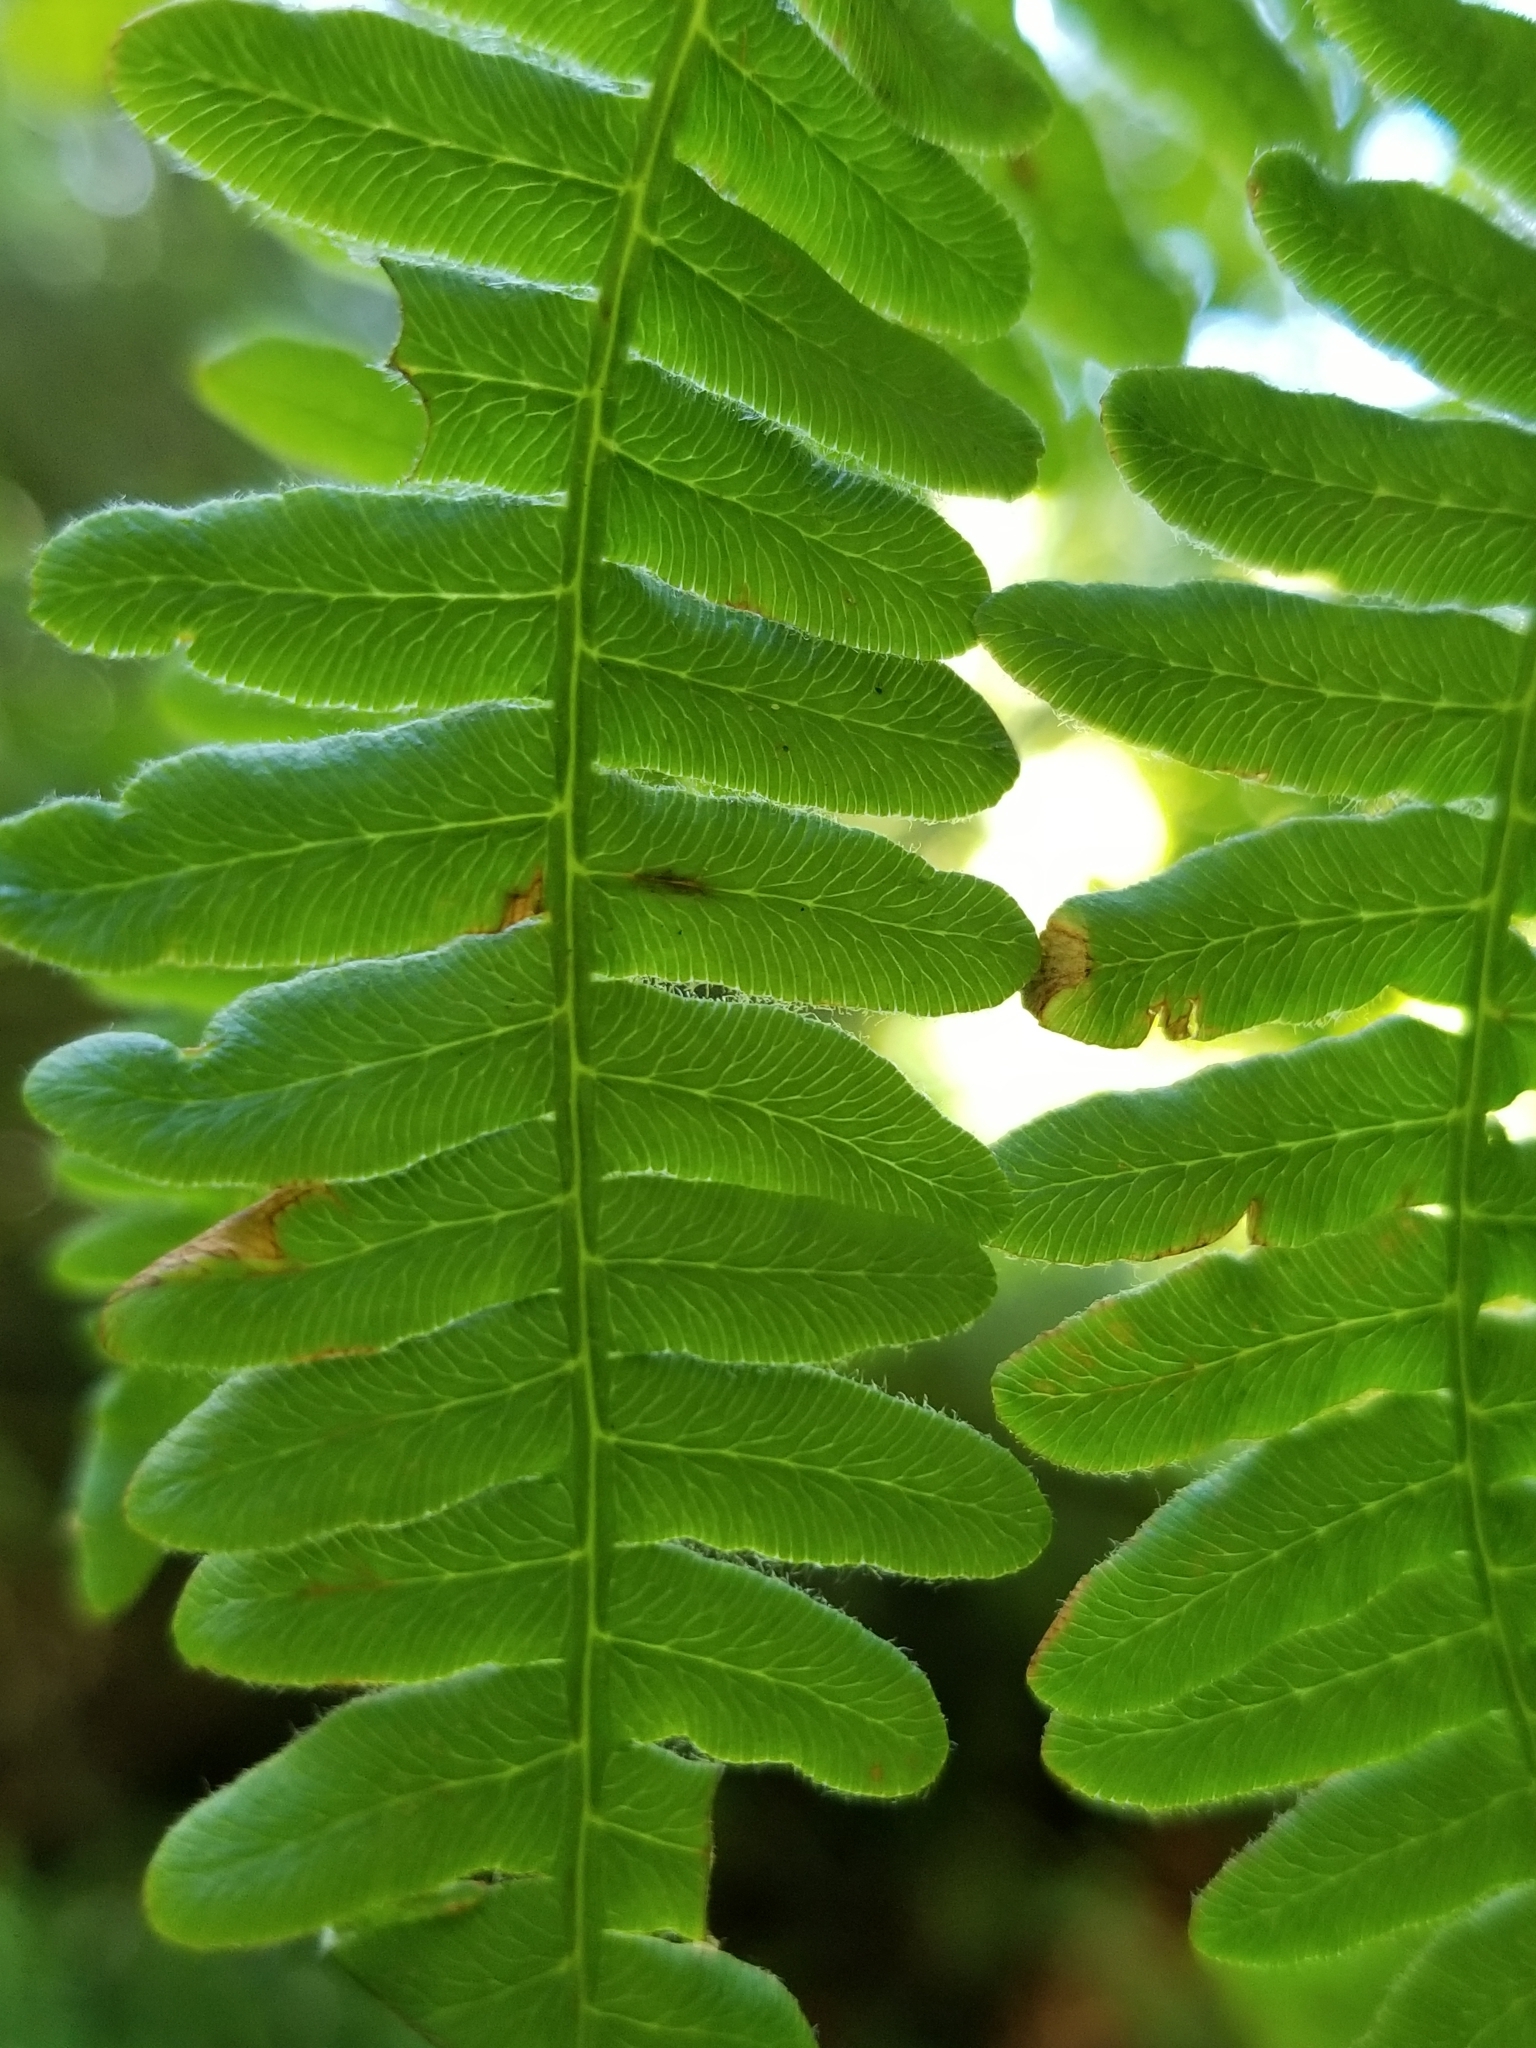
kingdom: Plantae
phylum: Tracheophyta
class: Polypodiopsida
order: Polypodiales
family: Dennstaedtiaceae
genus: Pteridium
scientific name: Pteridium aquilinum
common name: Bracken
